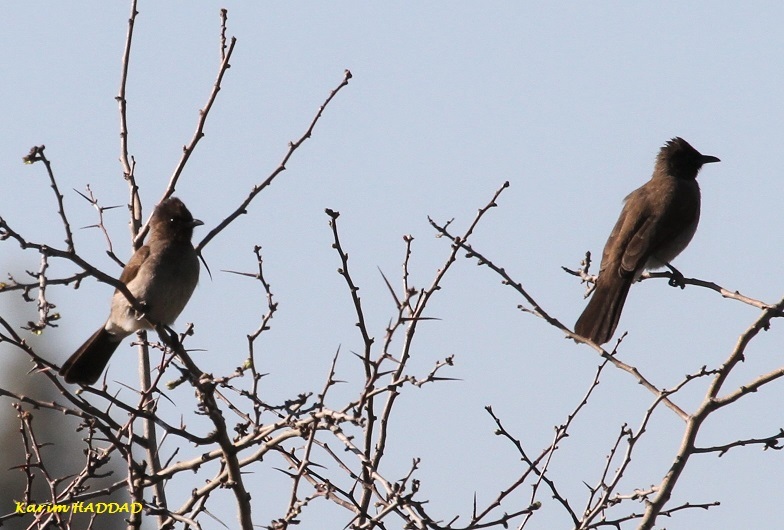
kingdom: Animalia
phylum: Chordata
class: Aves
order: Passeriformes
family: Pycnonotidae
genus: Pycnonotus
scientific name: Pycnonotus barbatus
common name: Common bulbul
